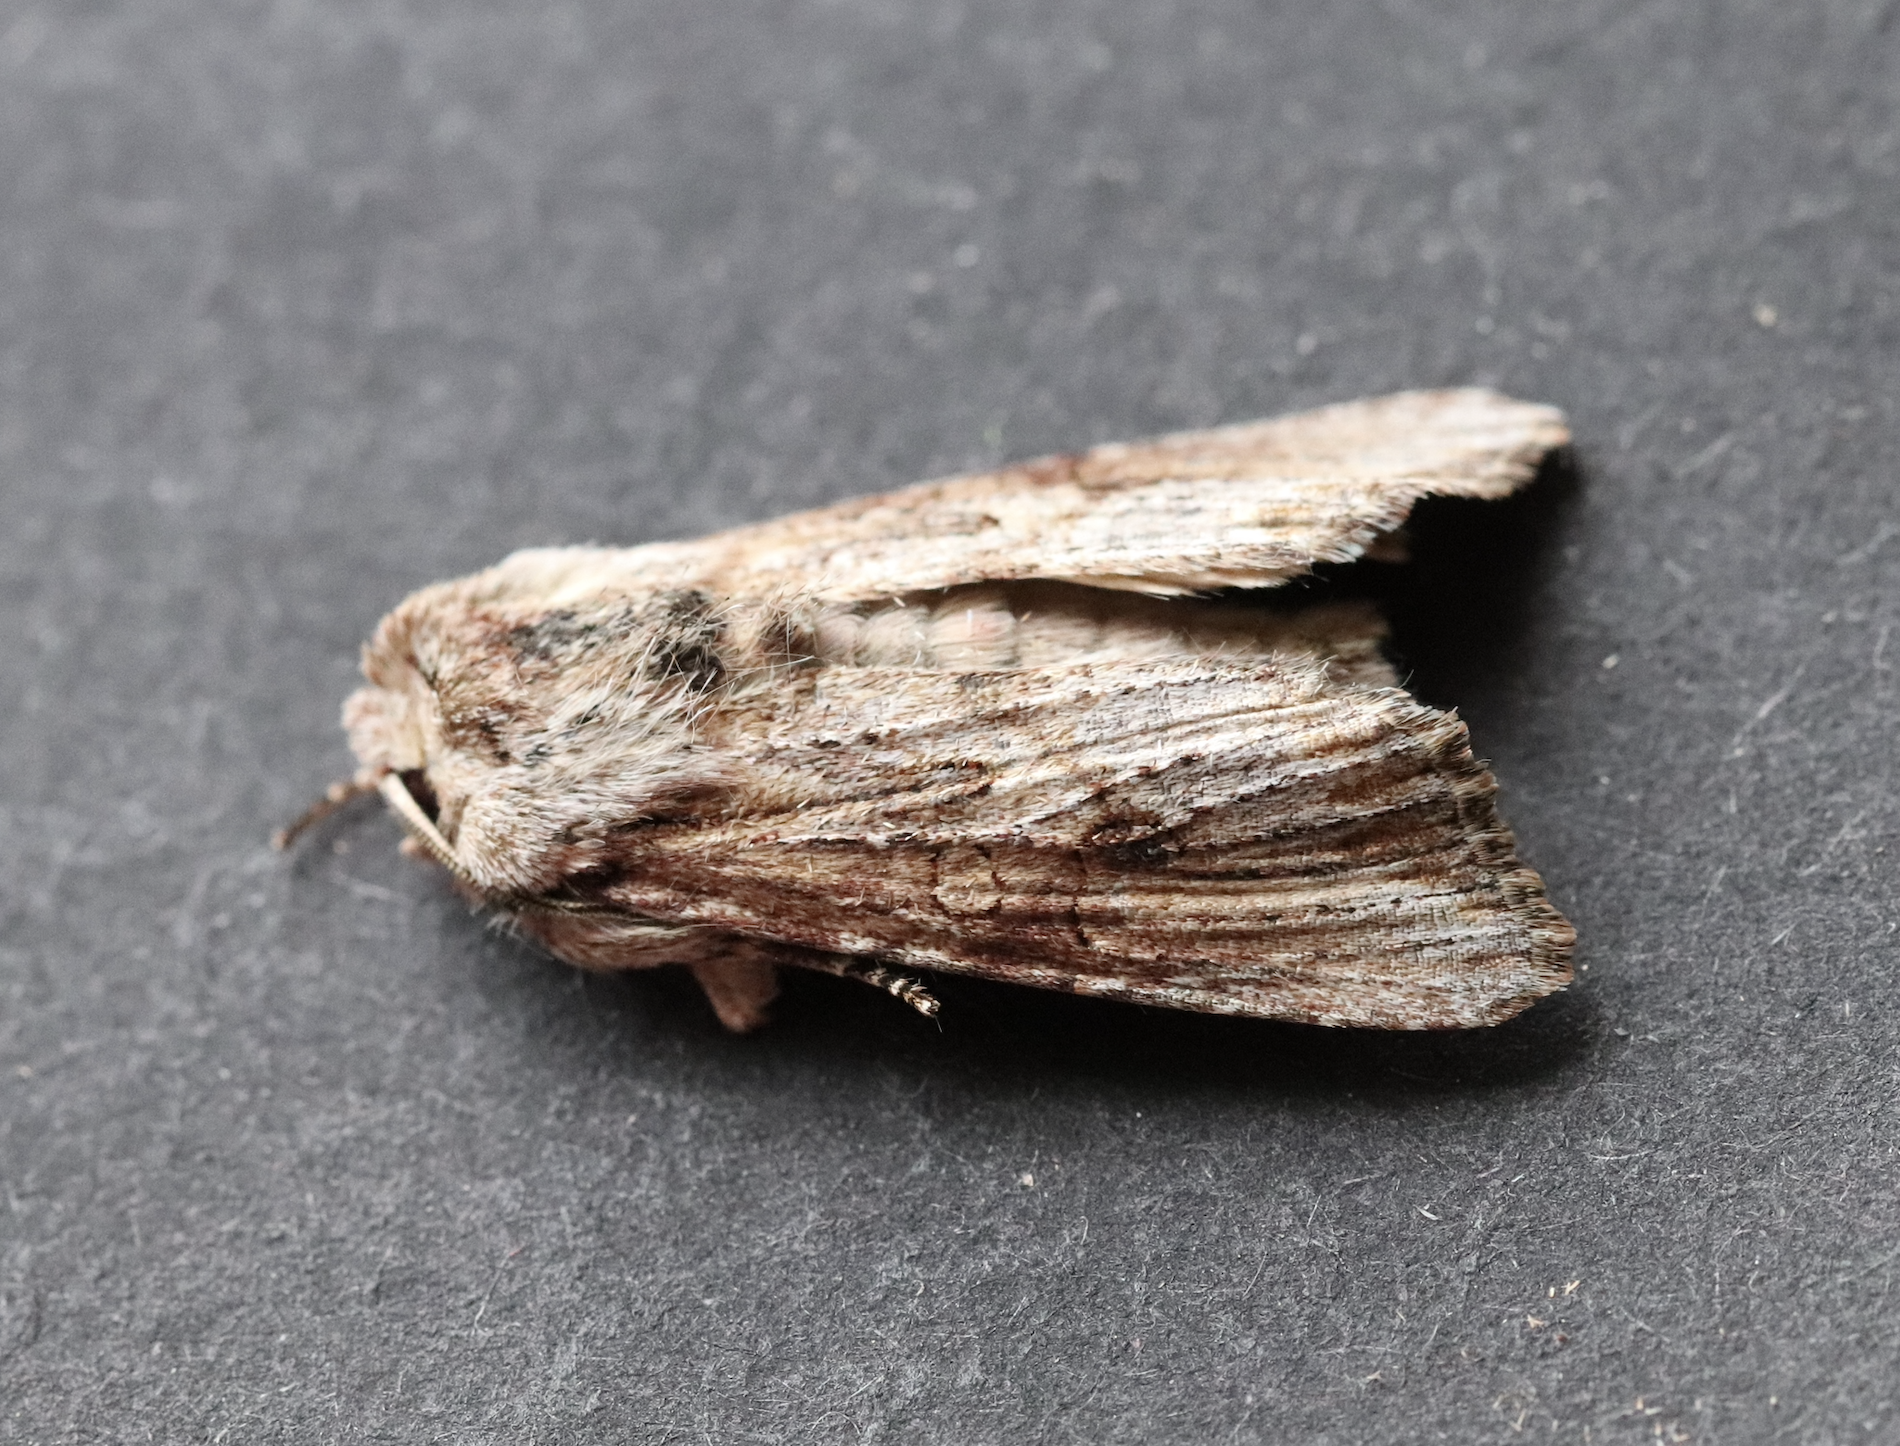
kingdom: Animalia
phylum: Arthropoda
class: Insecta
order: Lepidoptera
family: Noctuidae
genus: Egira
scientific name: Egira conspicillaris
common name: Silver cloud
